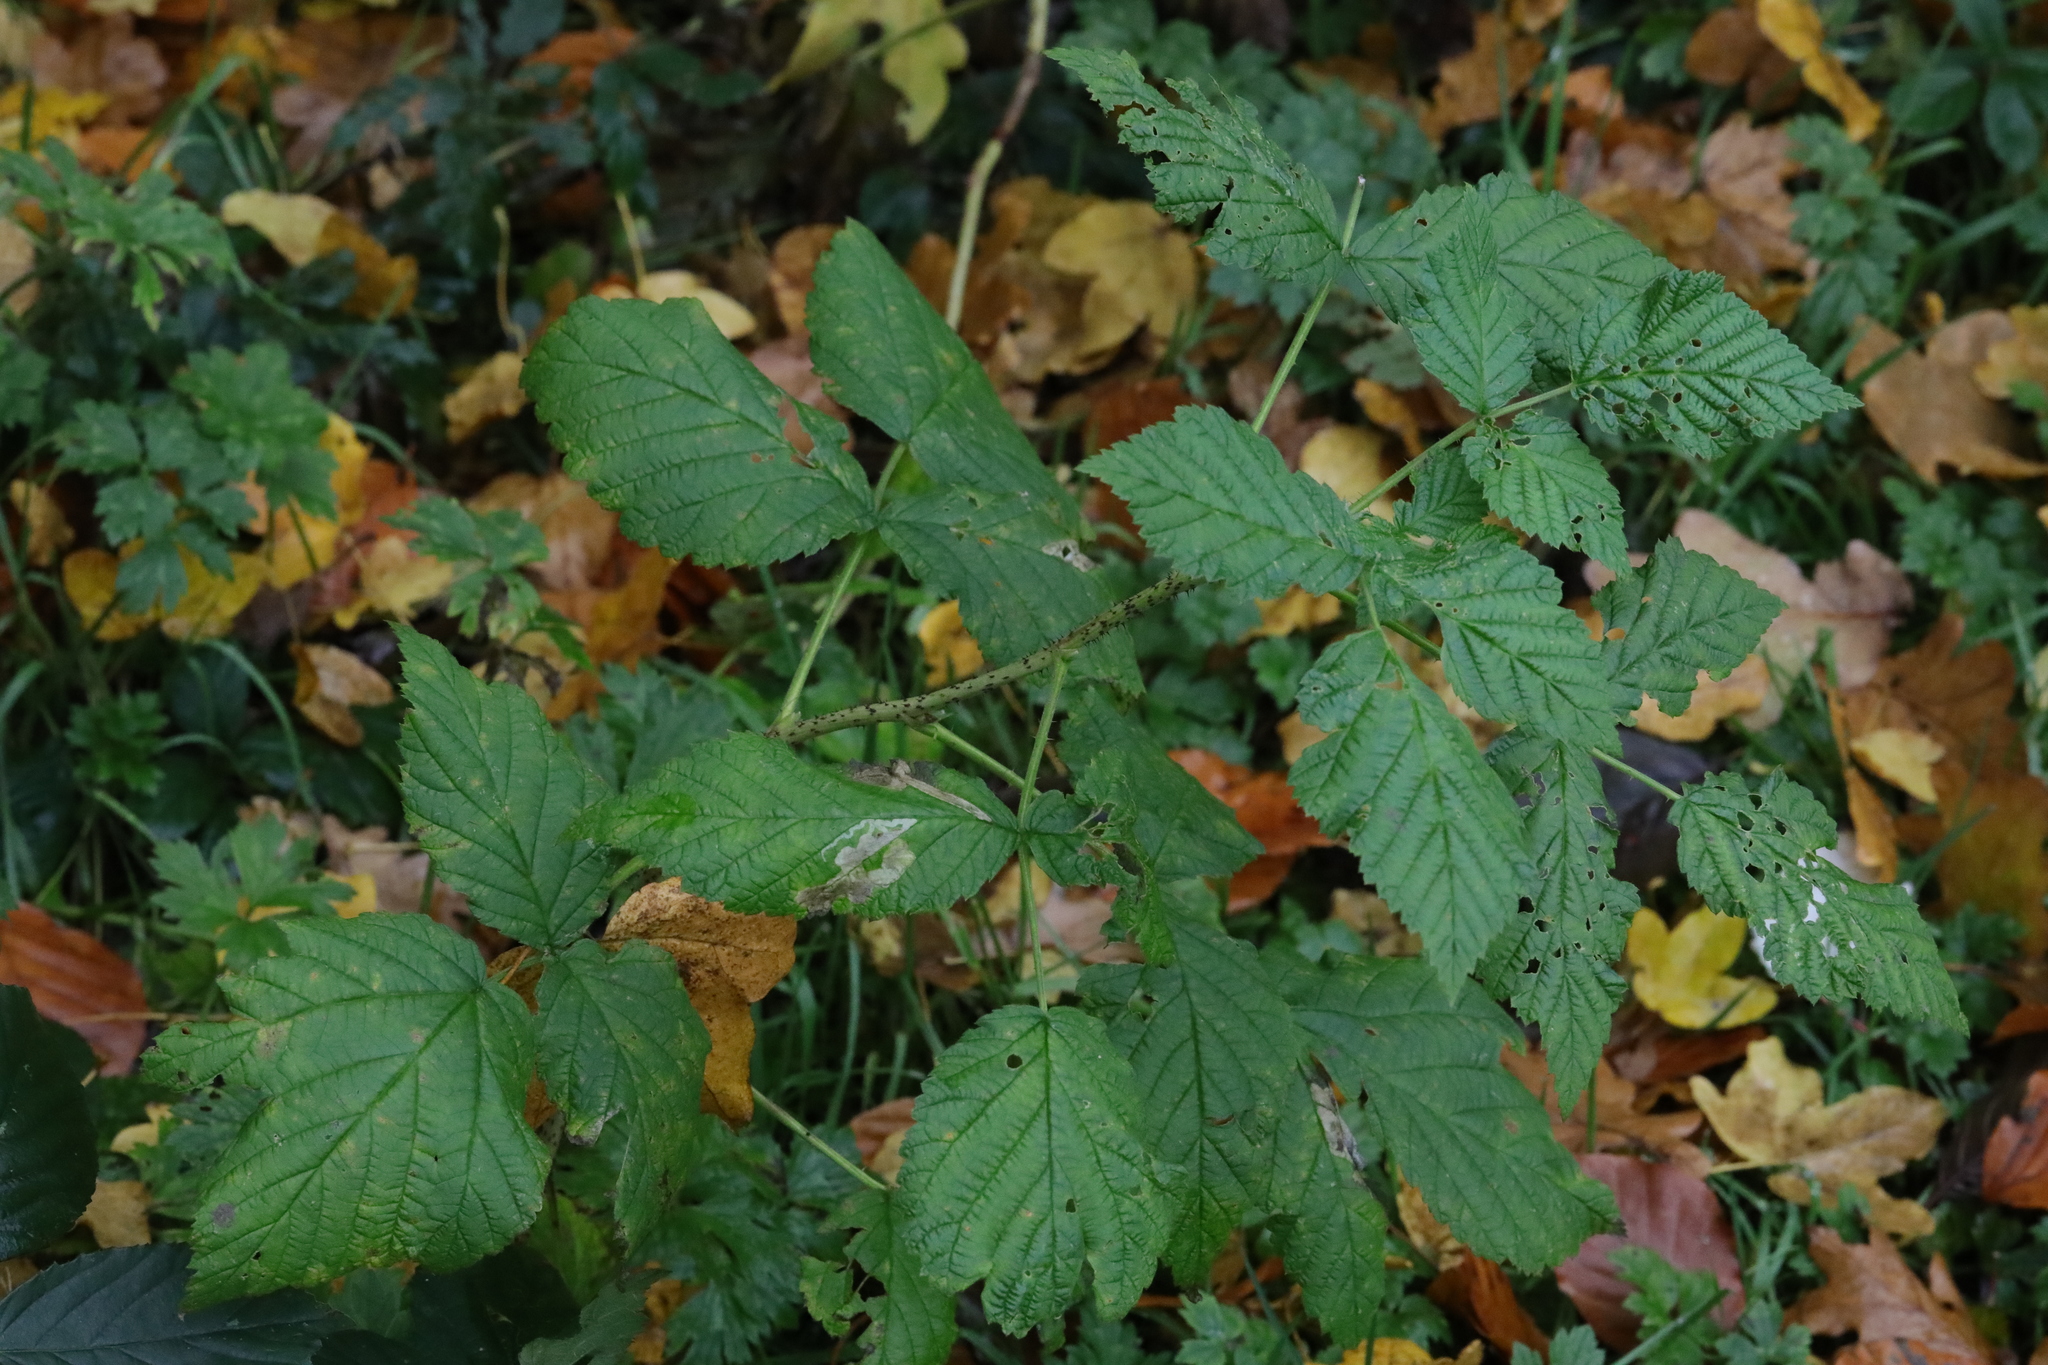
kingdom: Plantae
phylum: Tracheophyta
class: Magnoliopsida
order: Rosales
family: Rosaceae
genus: Rubus
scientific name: Rubus idaeus
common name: Raspberry
